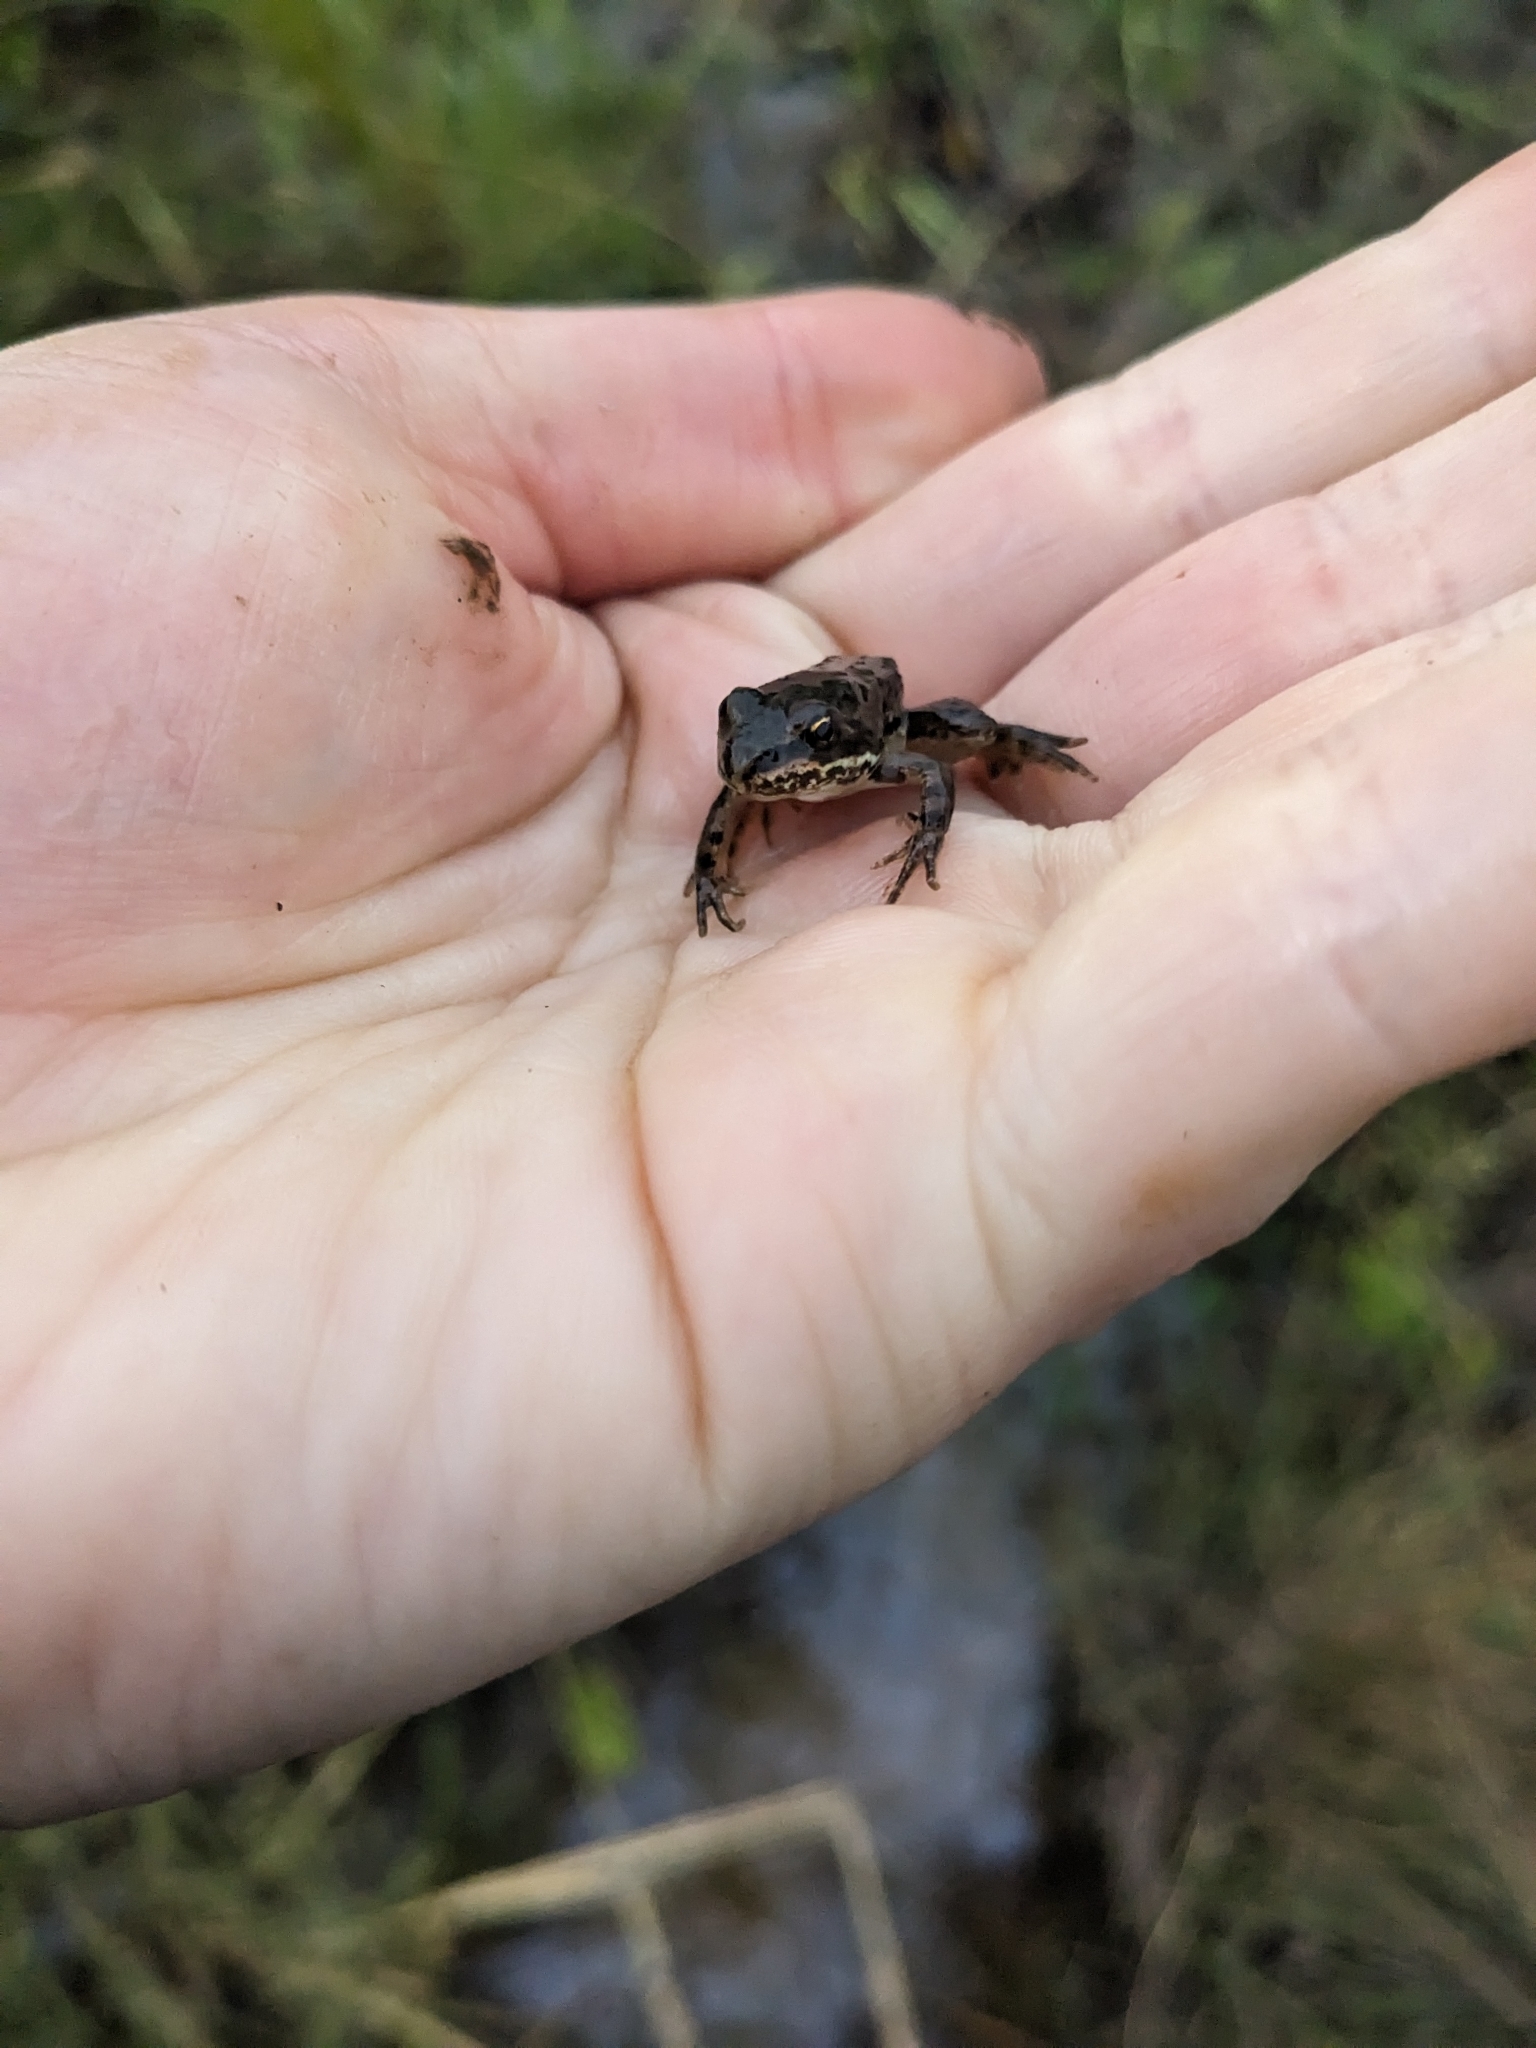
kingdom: Animalia
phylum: Chordata
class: Amphibia
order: Anura
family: Ranidae
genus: Rana
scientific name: Rana luteiventris
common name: Columbia spotted frog
